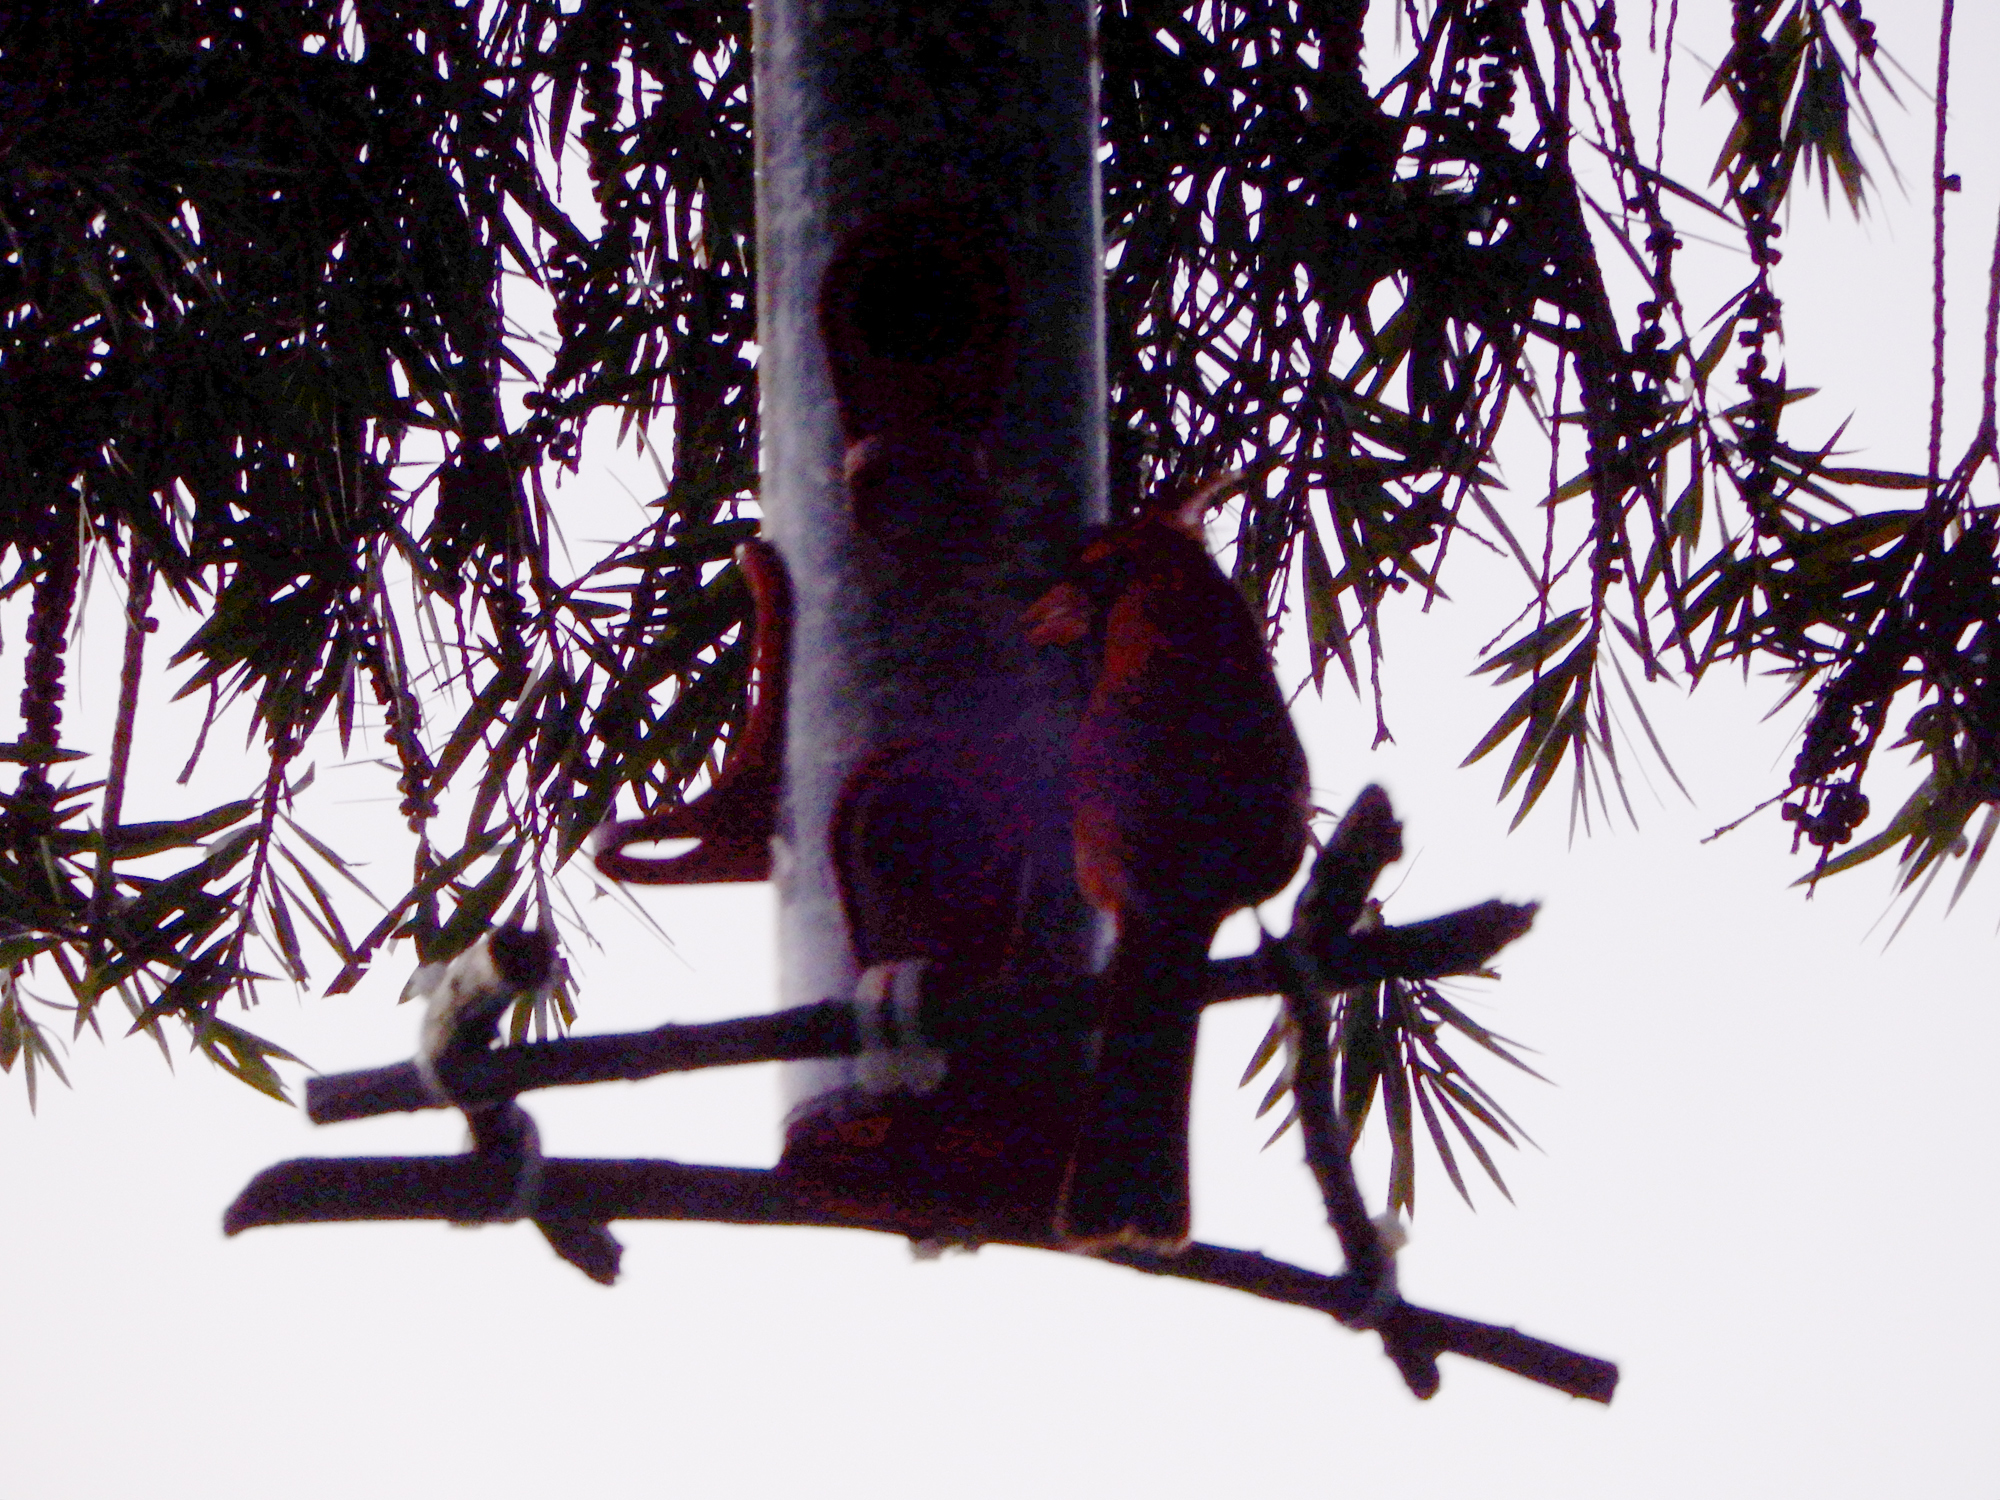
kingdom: Animalia
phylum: Chordata
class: Aves
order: Passeriformes
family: Cardinalidae
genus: Cardinalis
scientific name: Cardinalis cardinalis
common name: Northern cardinal
